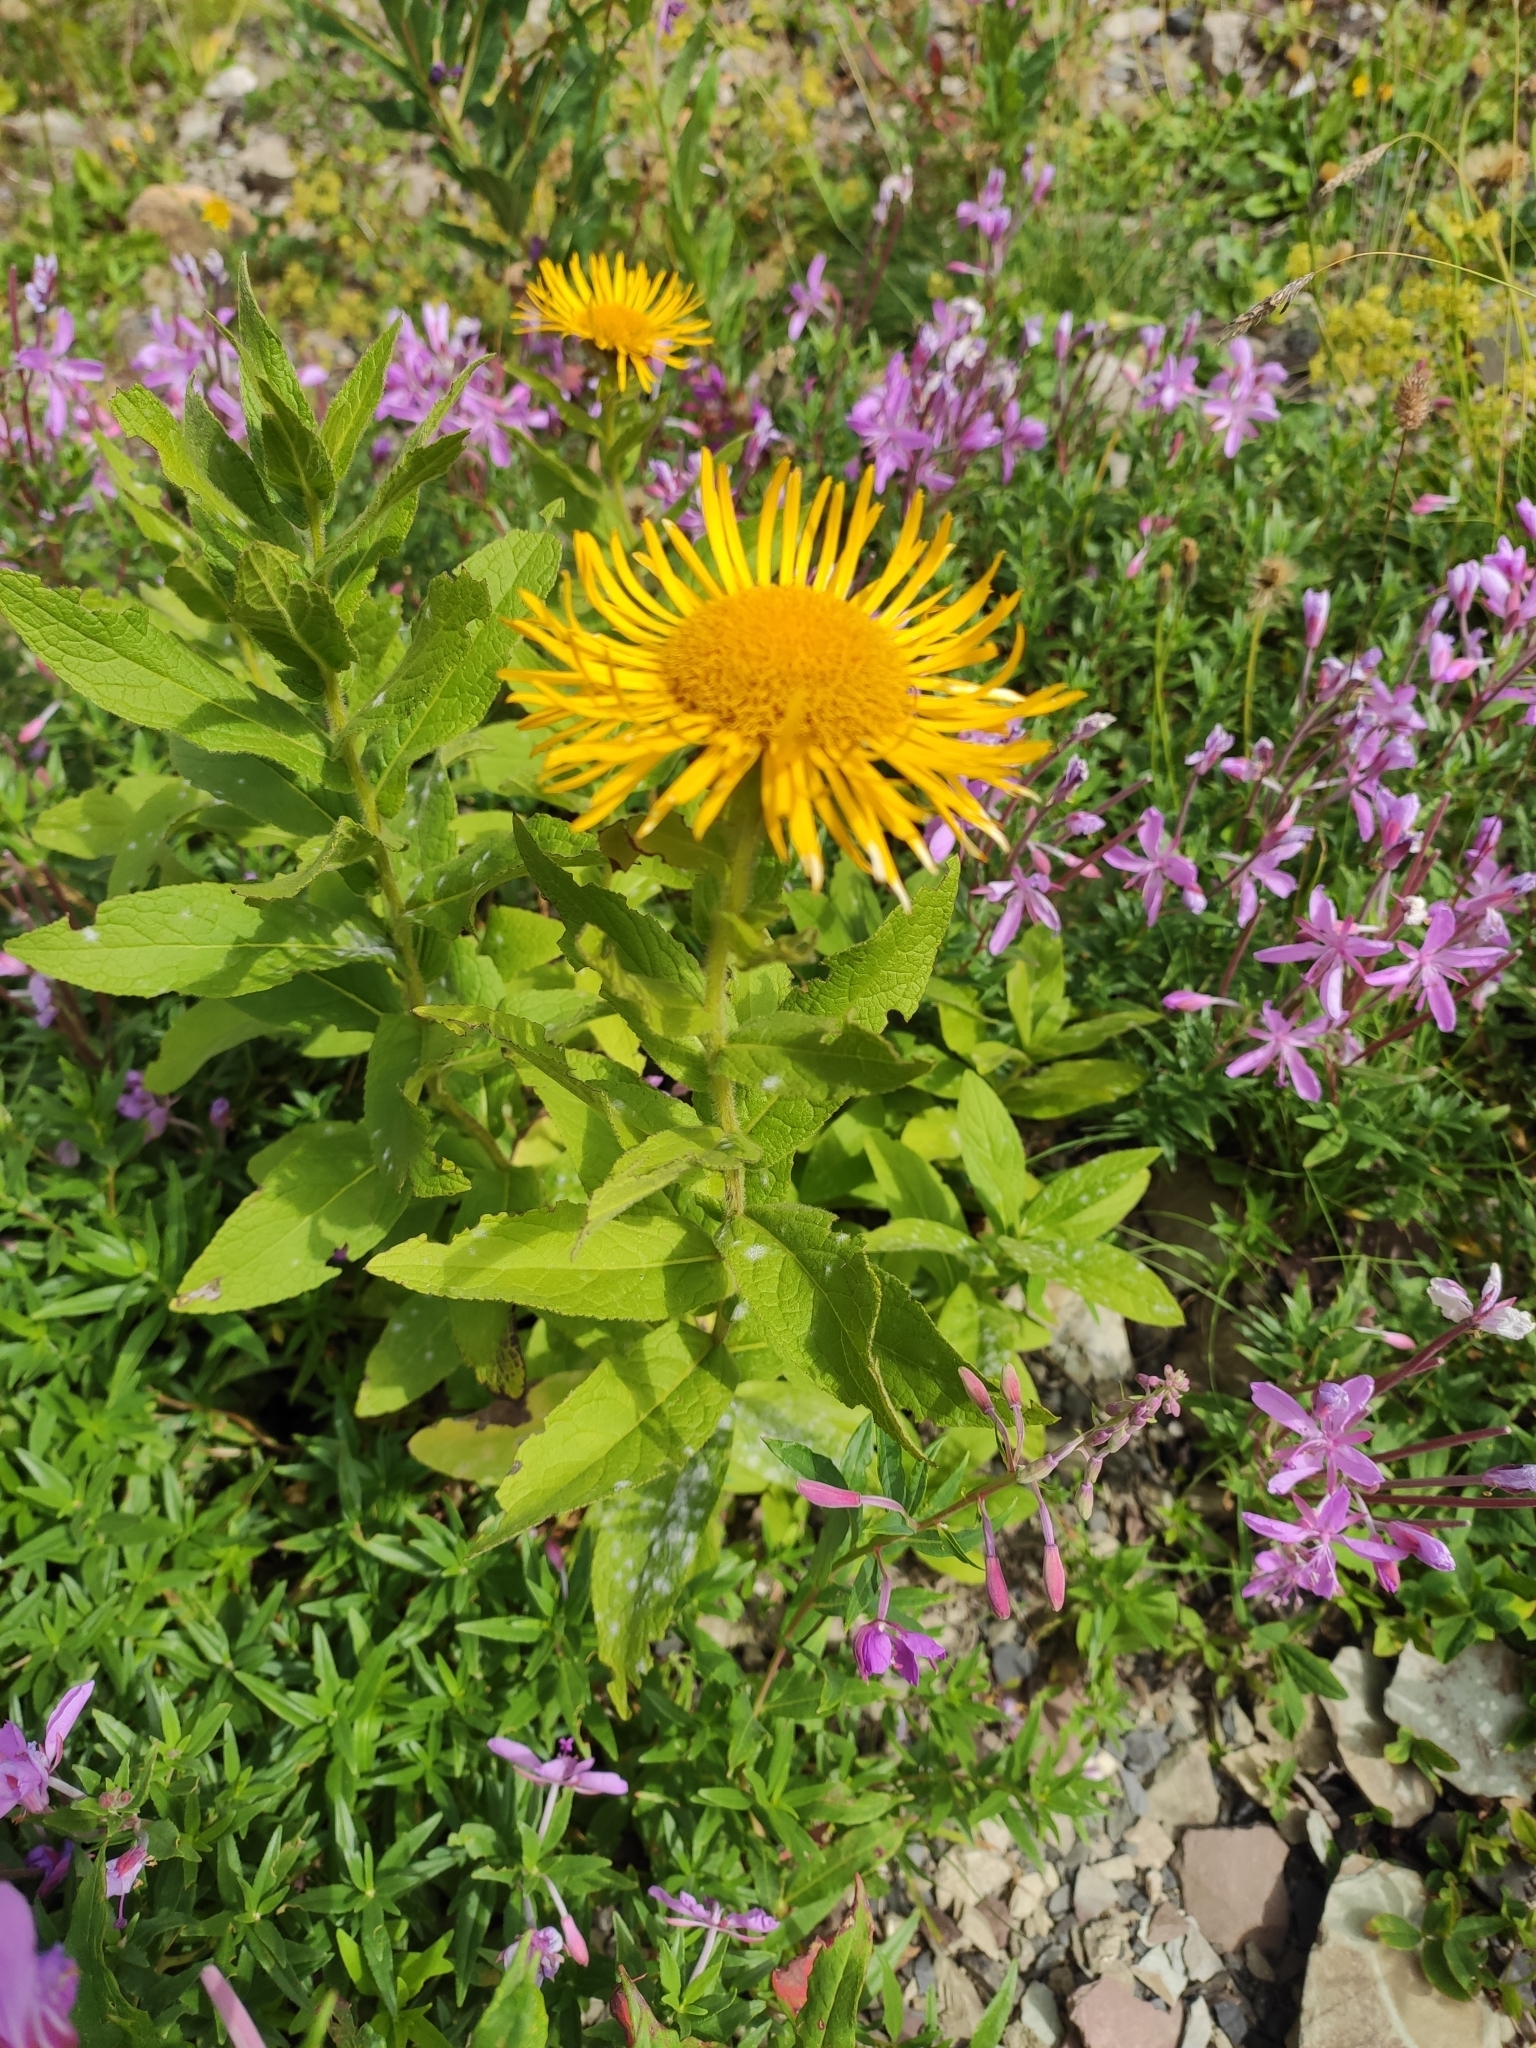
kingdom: Plantae
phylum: Tracheophyta
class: Magnoliopsida
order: Asterales
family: Asteraceae
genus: Pentanema
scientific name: Pentanema orientale
